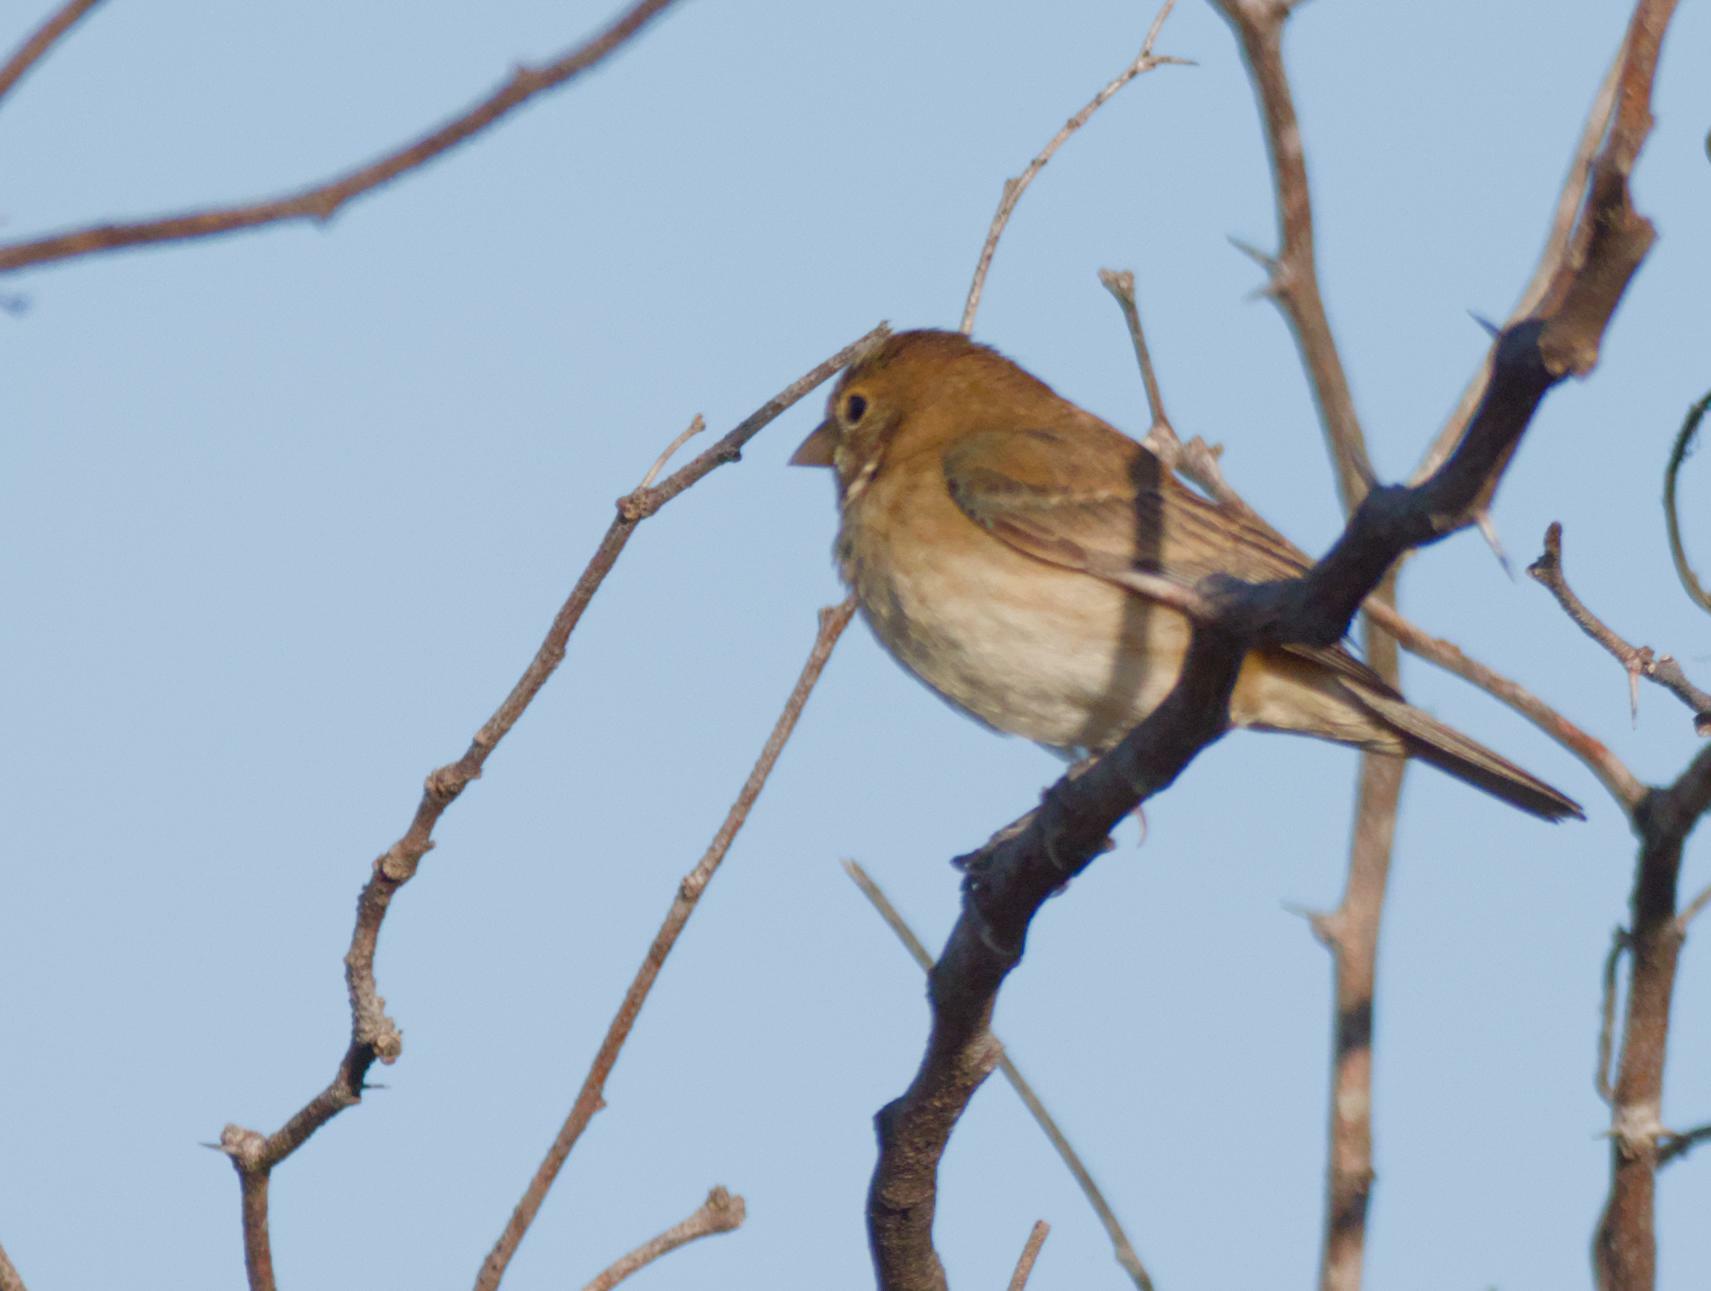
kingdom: Animalia
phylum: Chordata
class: Aves
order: Passeriformes
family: Cardinalidae
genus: Passerina
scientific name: Passerina cyanea
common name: Indigo bunting
